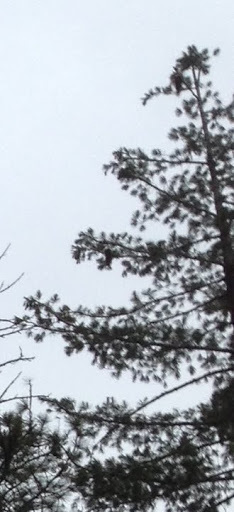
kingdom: Plantae
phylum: Tracheophyta
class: Pinopsida
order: Pinales
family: Pinaceae
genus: Pinus
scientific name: Pinus lambertiana
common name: Sugar pine
